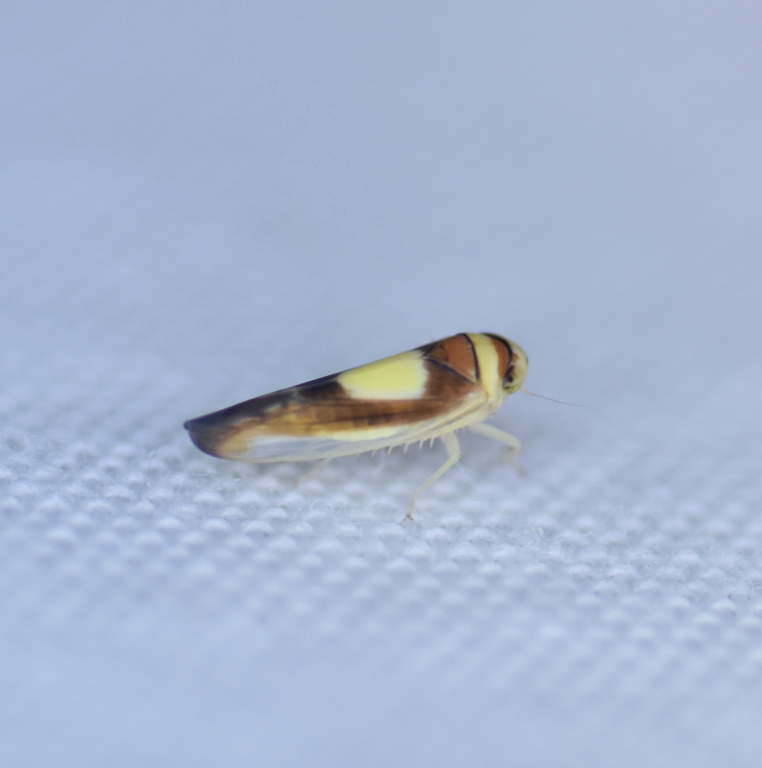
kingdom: Animalia
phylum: Arthropoda
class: Insecta
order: Hemiptera
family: Cicadellidae
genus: Colladonus
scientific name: Colladonus clitellarius
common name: The saddleback leafhopper
